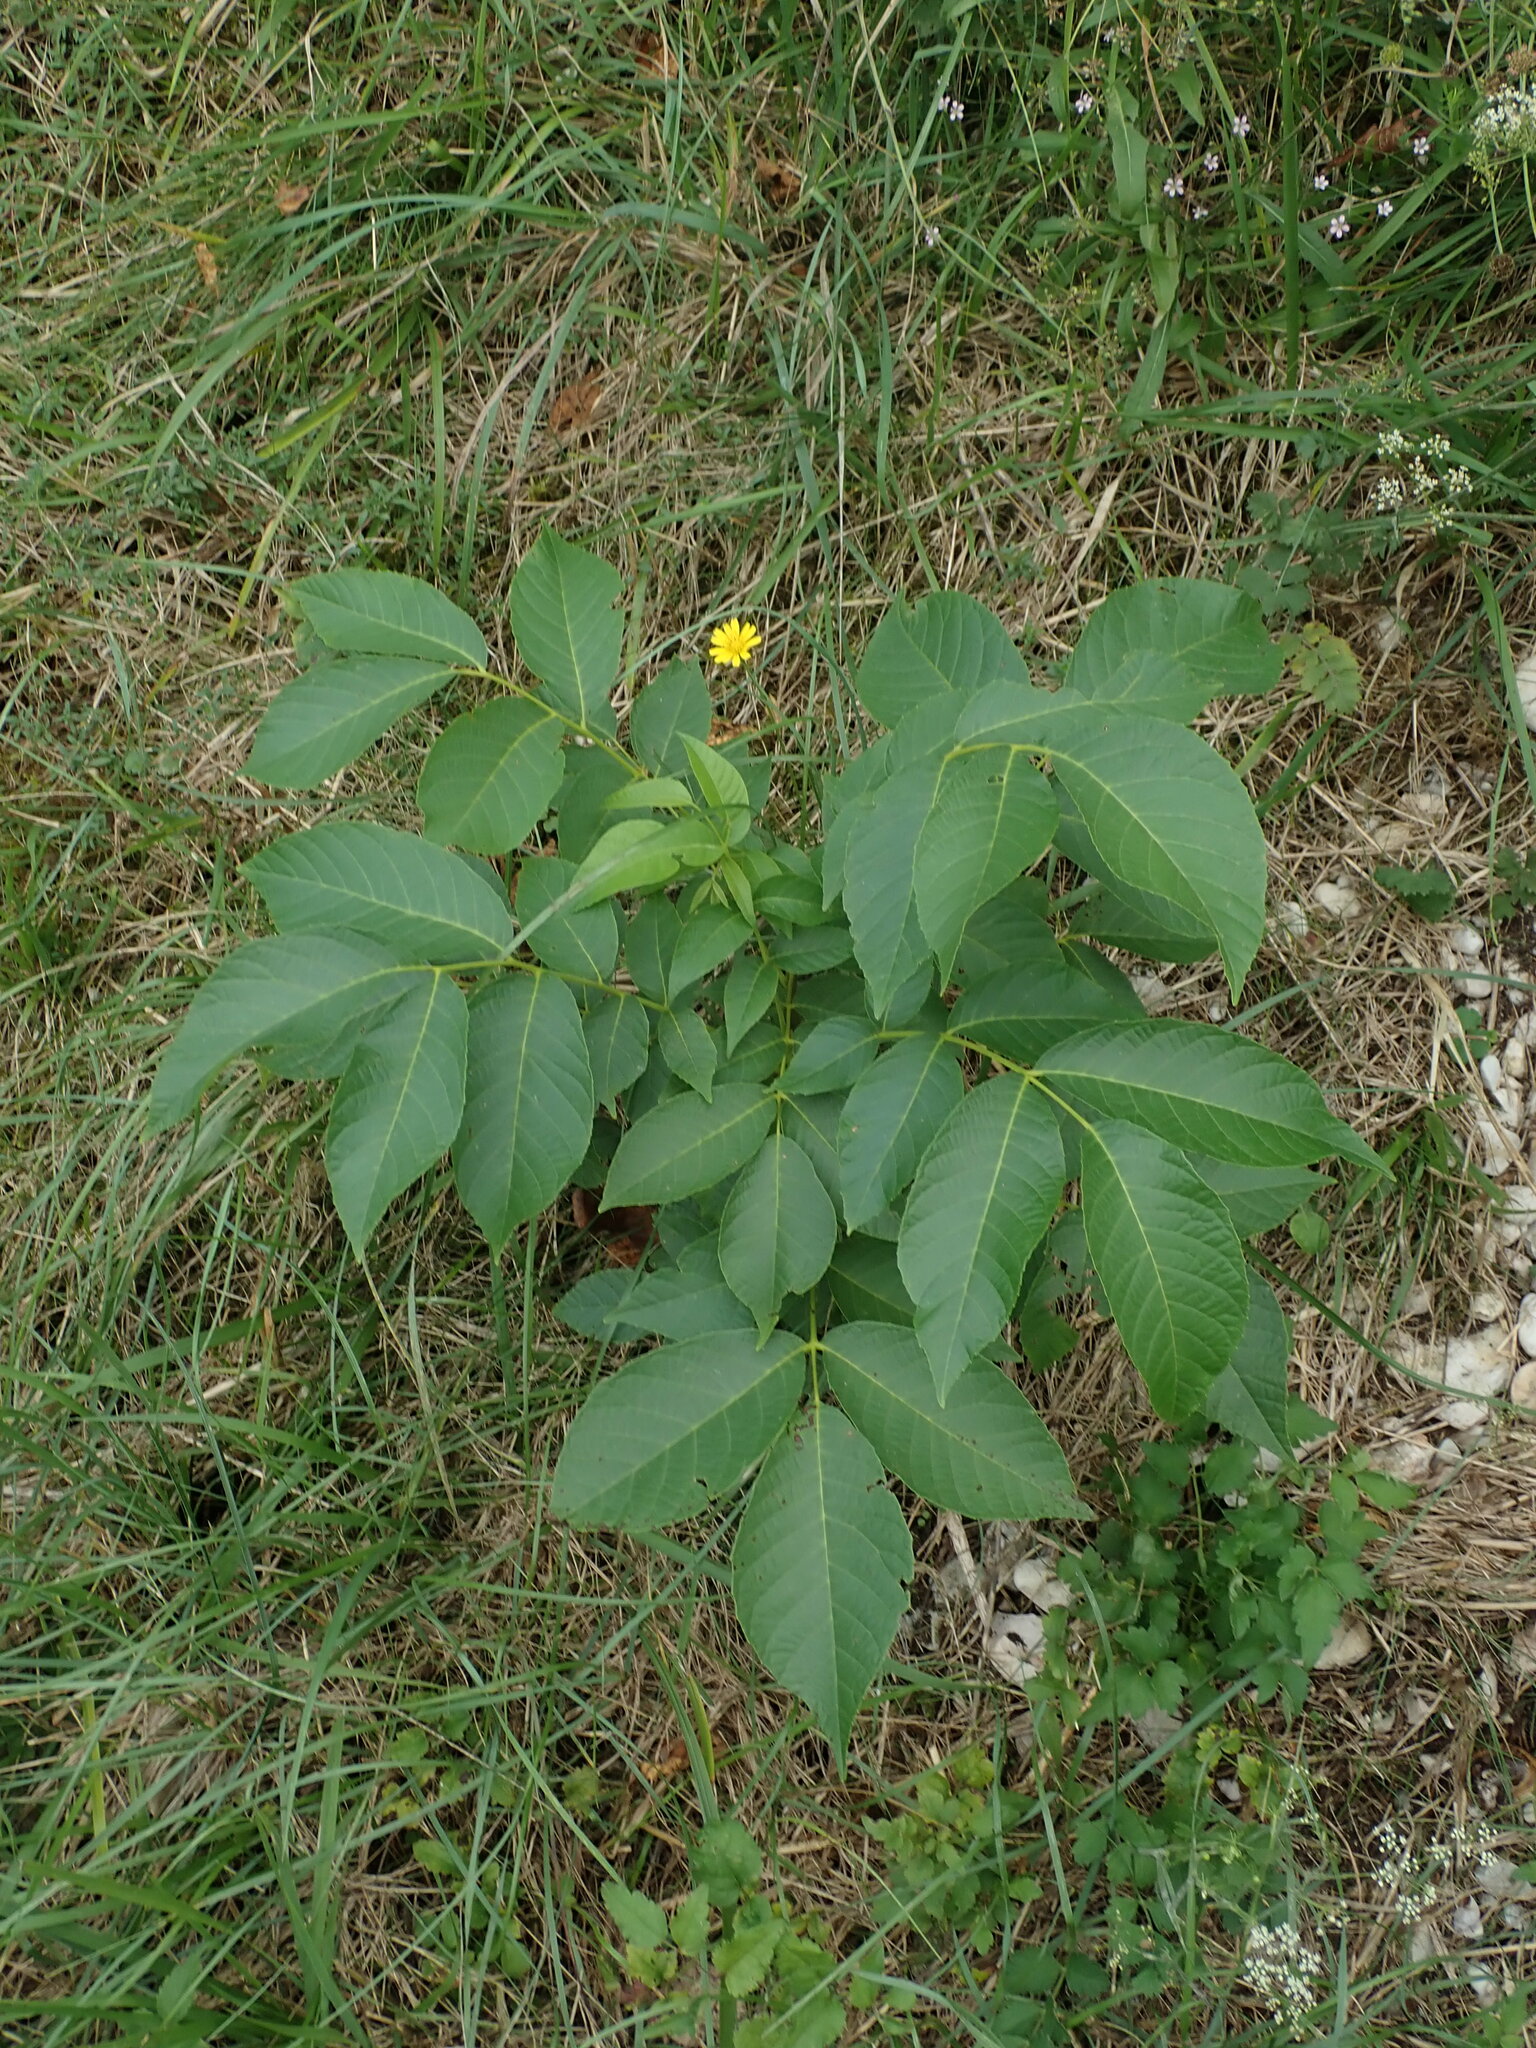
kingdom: Plantae
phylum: Tracheophyta
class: Magnoliopsida
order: Fagales
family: Juglandaceae
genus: Juglans
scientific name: Juglans regia
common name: Walnut
